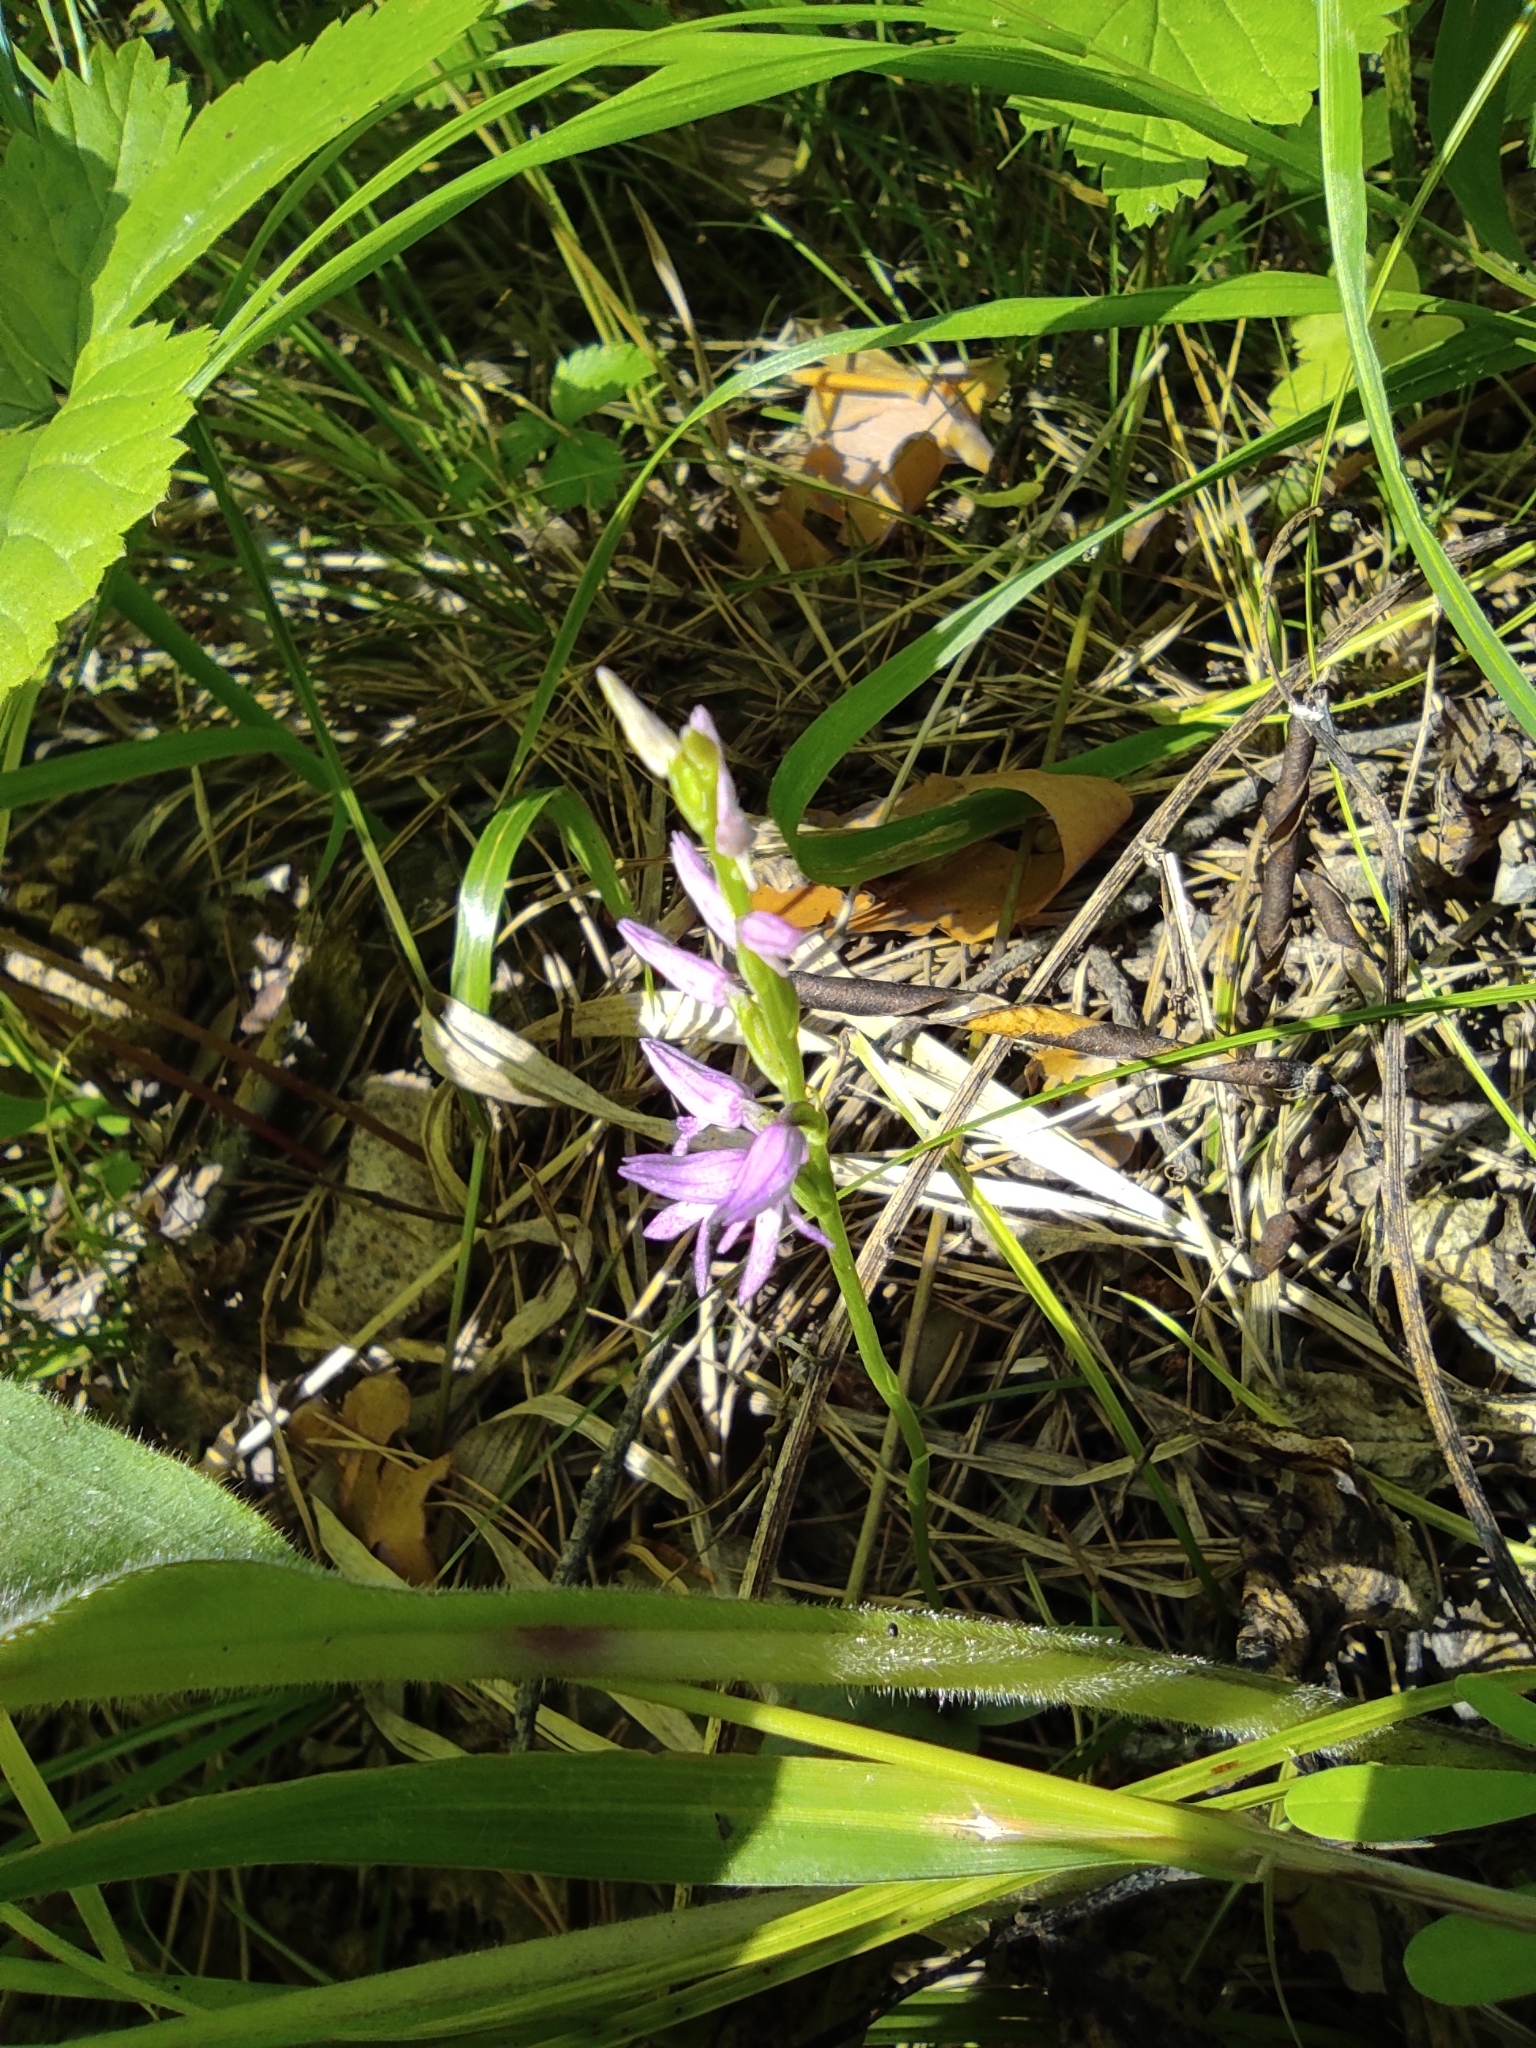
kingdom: Plantae
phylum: Tracheophyta
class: Liliopsida
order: Asparagales
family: Orchidaceae
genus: Hemipilia
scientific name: Hemipilia cucullata
